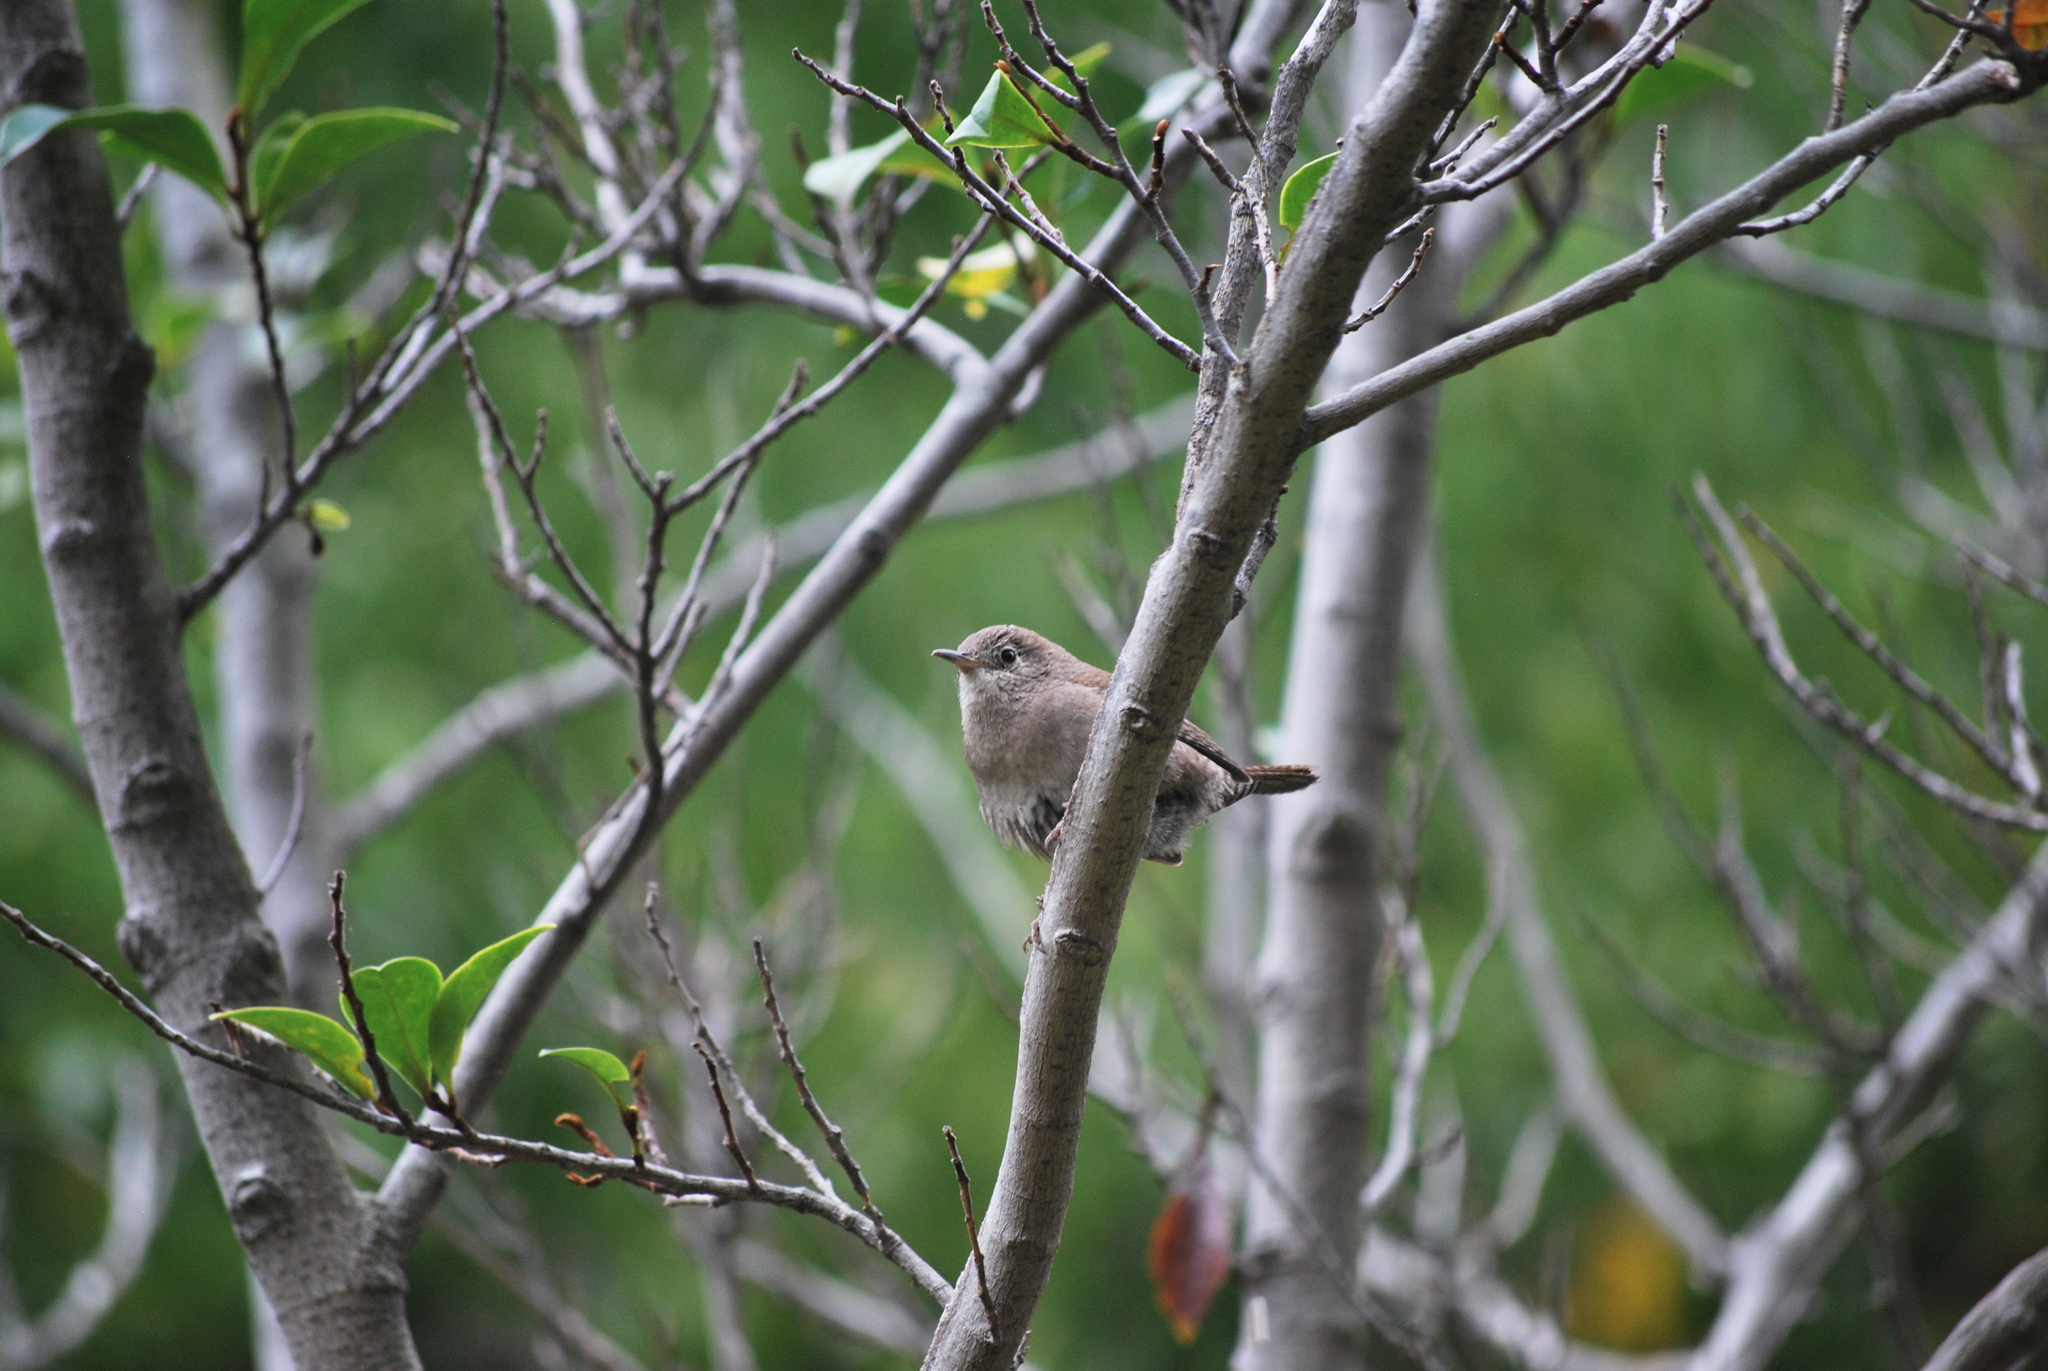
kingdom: Animalia
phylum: Chordata
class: Aves
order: Passeriformes
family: Troglodytidae
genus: Troglodytes
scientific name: Troglodytes aedon
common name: House wren
